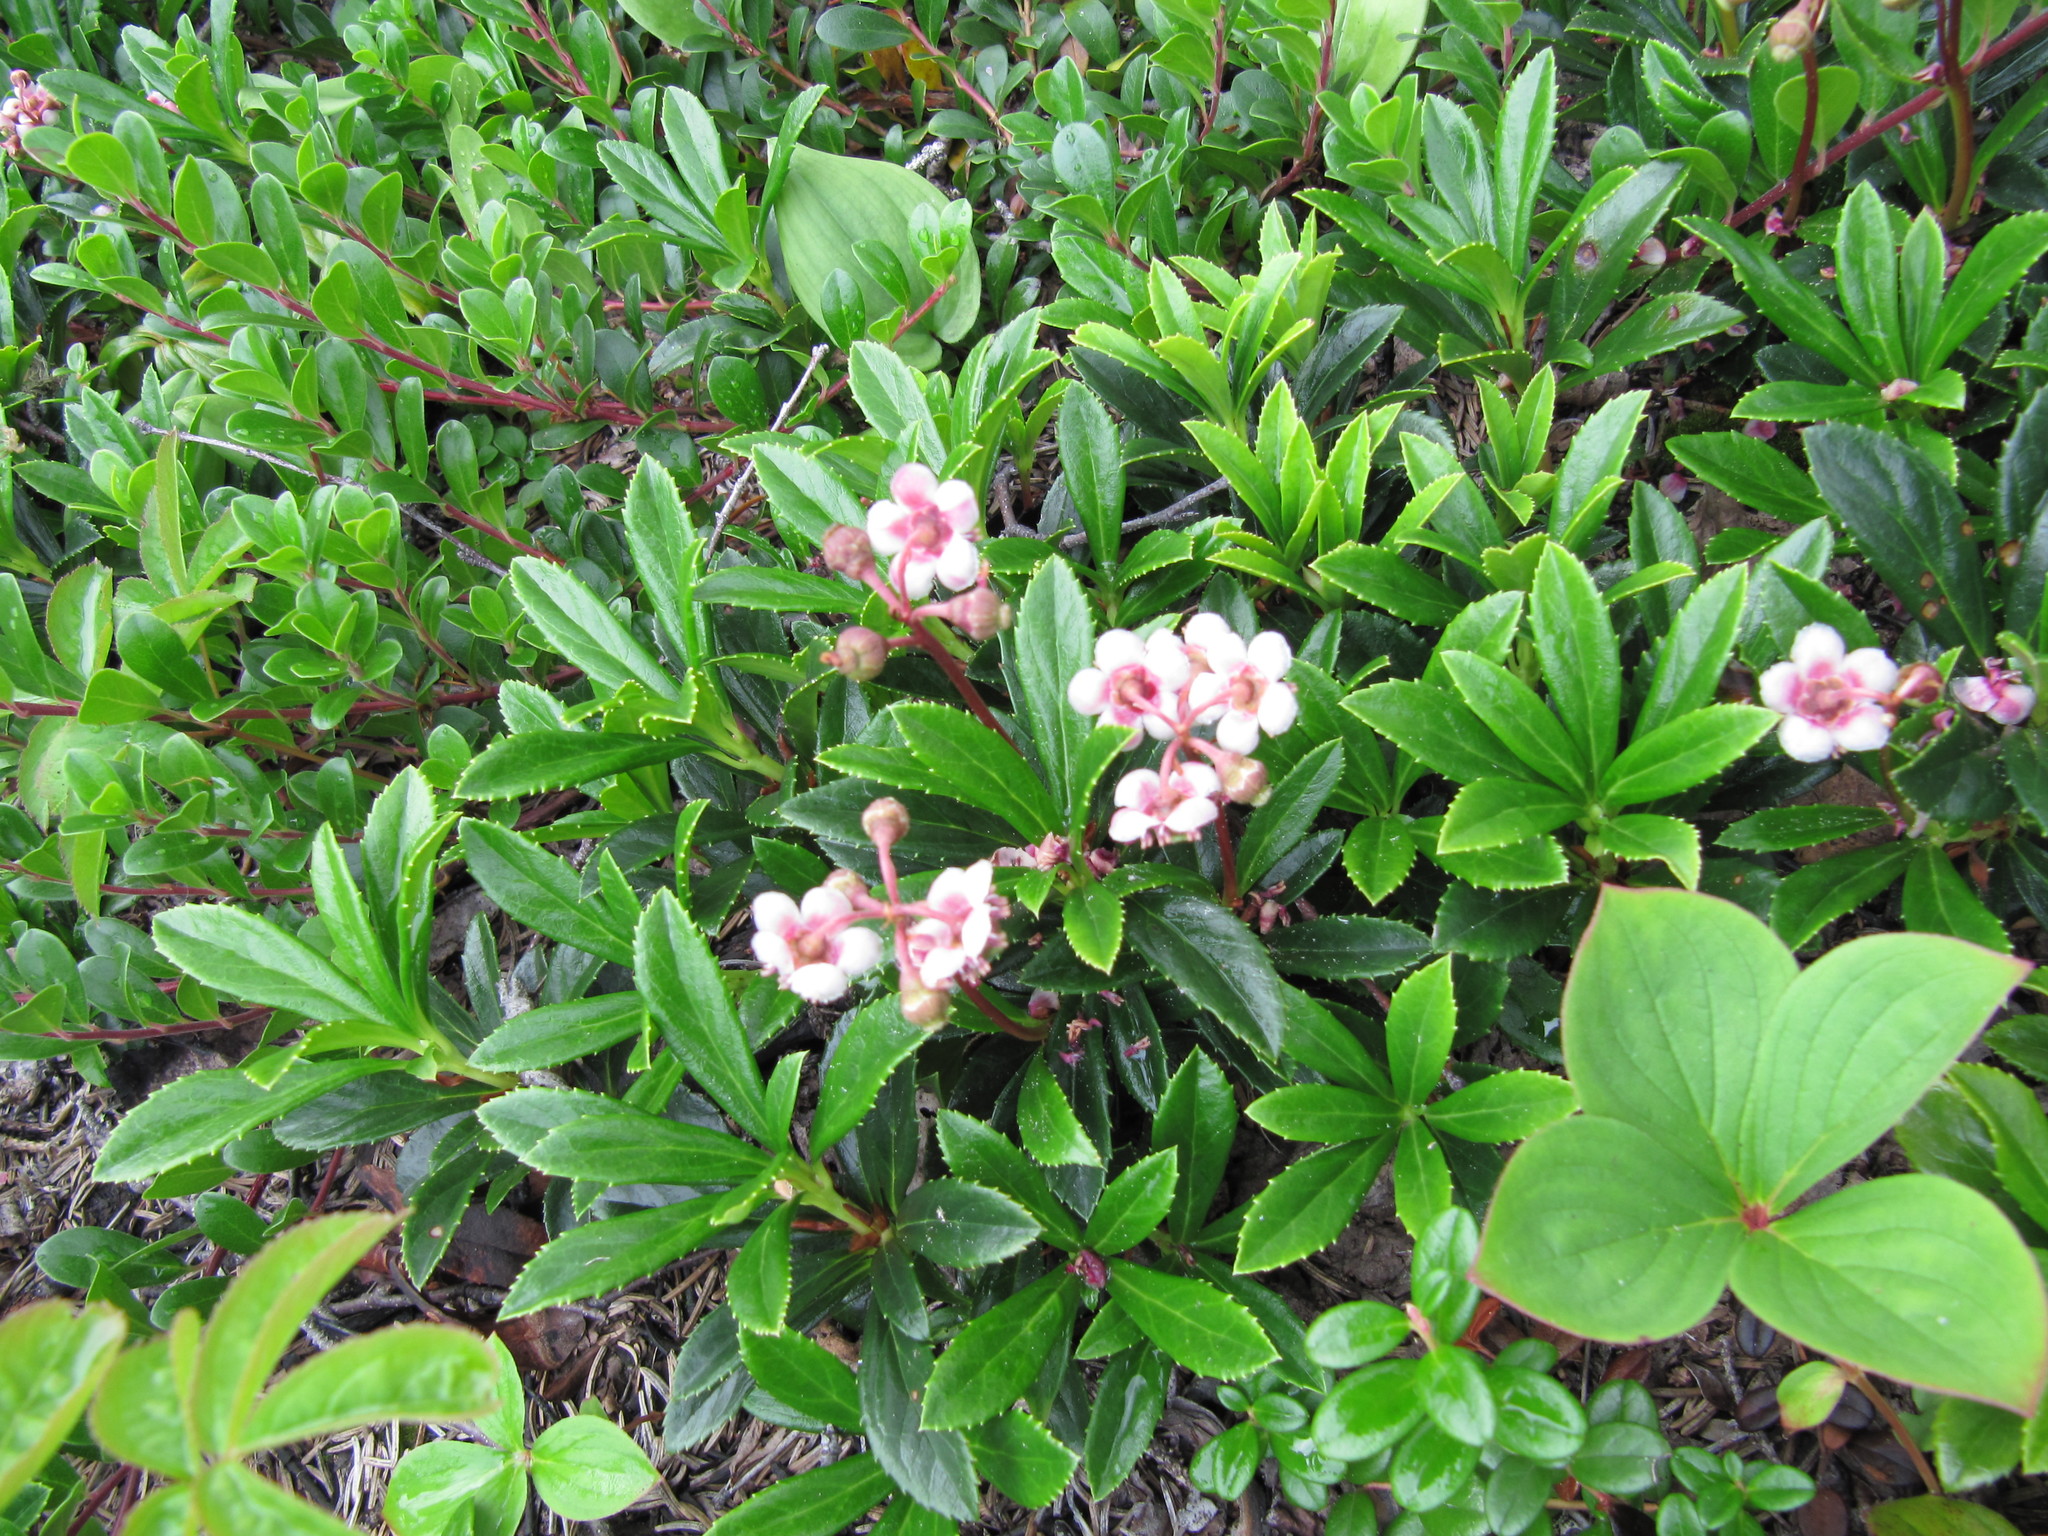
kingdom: Plantae
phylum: Tracheophyta
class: Magnoliopsida
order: Ericales
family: Ericaceae
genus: Chimaphila
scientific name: Chimaphila umbellata
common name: Pipsissewa
